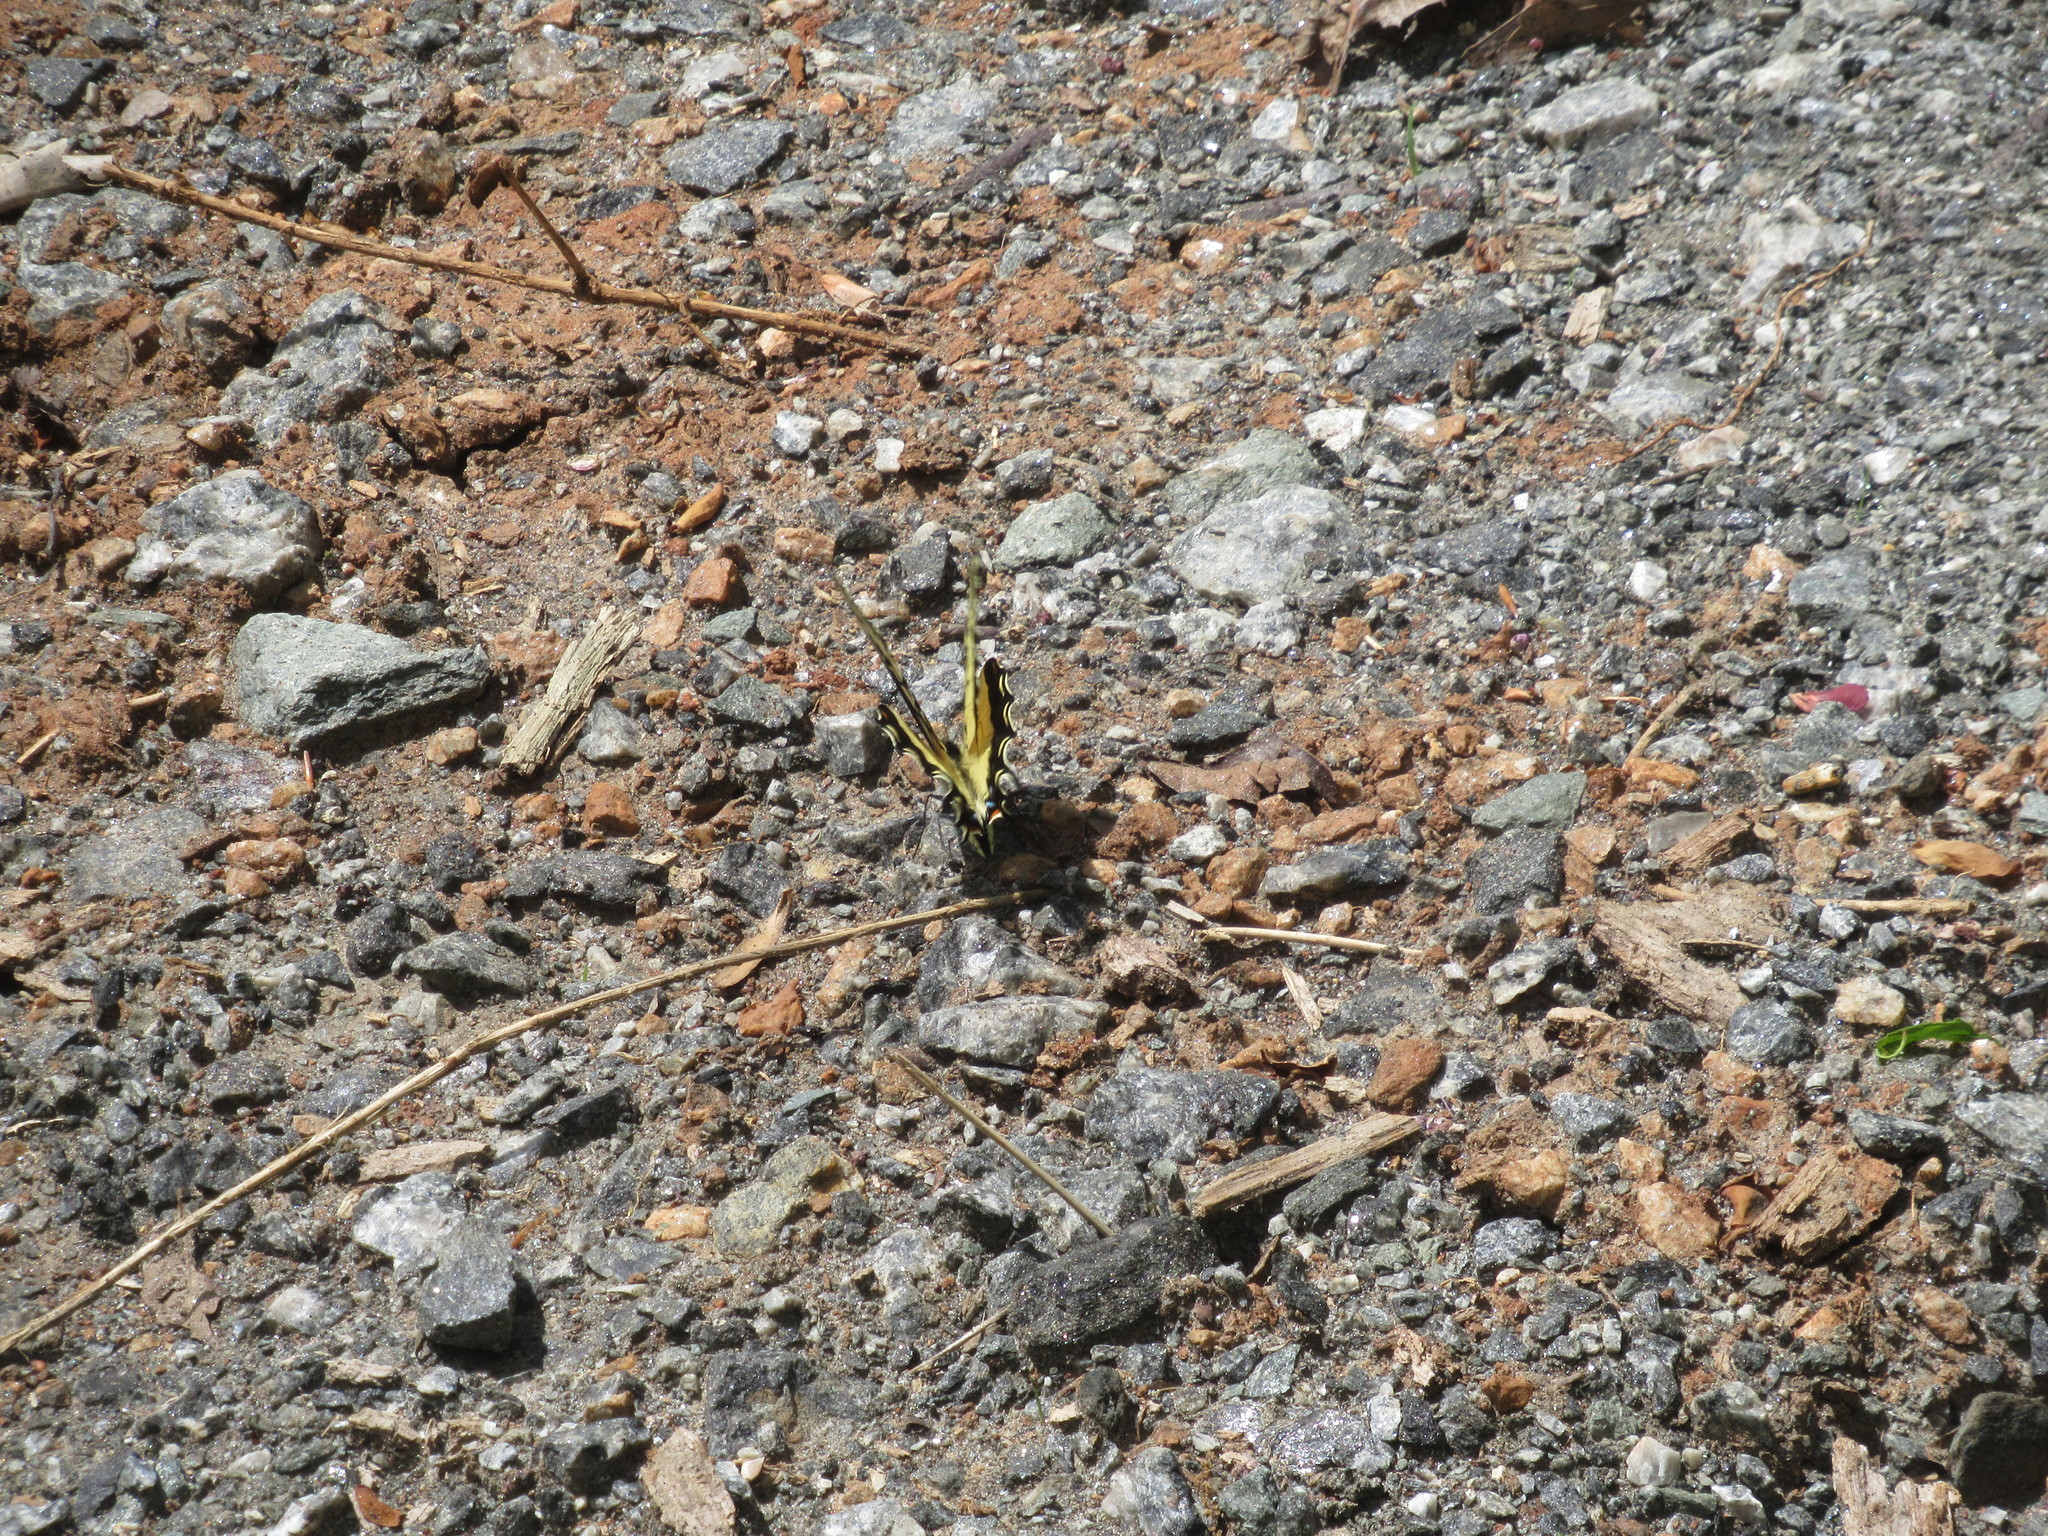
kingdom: Animalia
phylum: Arthropoda
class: Insecta
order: Lepidoptera
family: Papilionidae
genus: Papilio
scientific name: Papilio glaucus
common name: Tiger swallowtail
